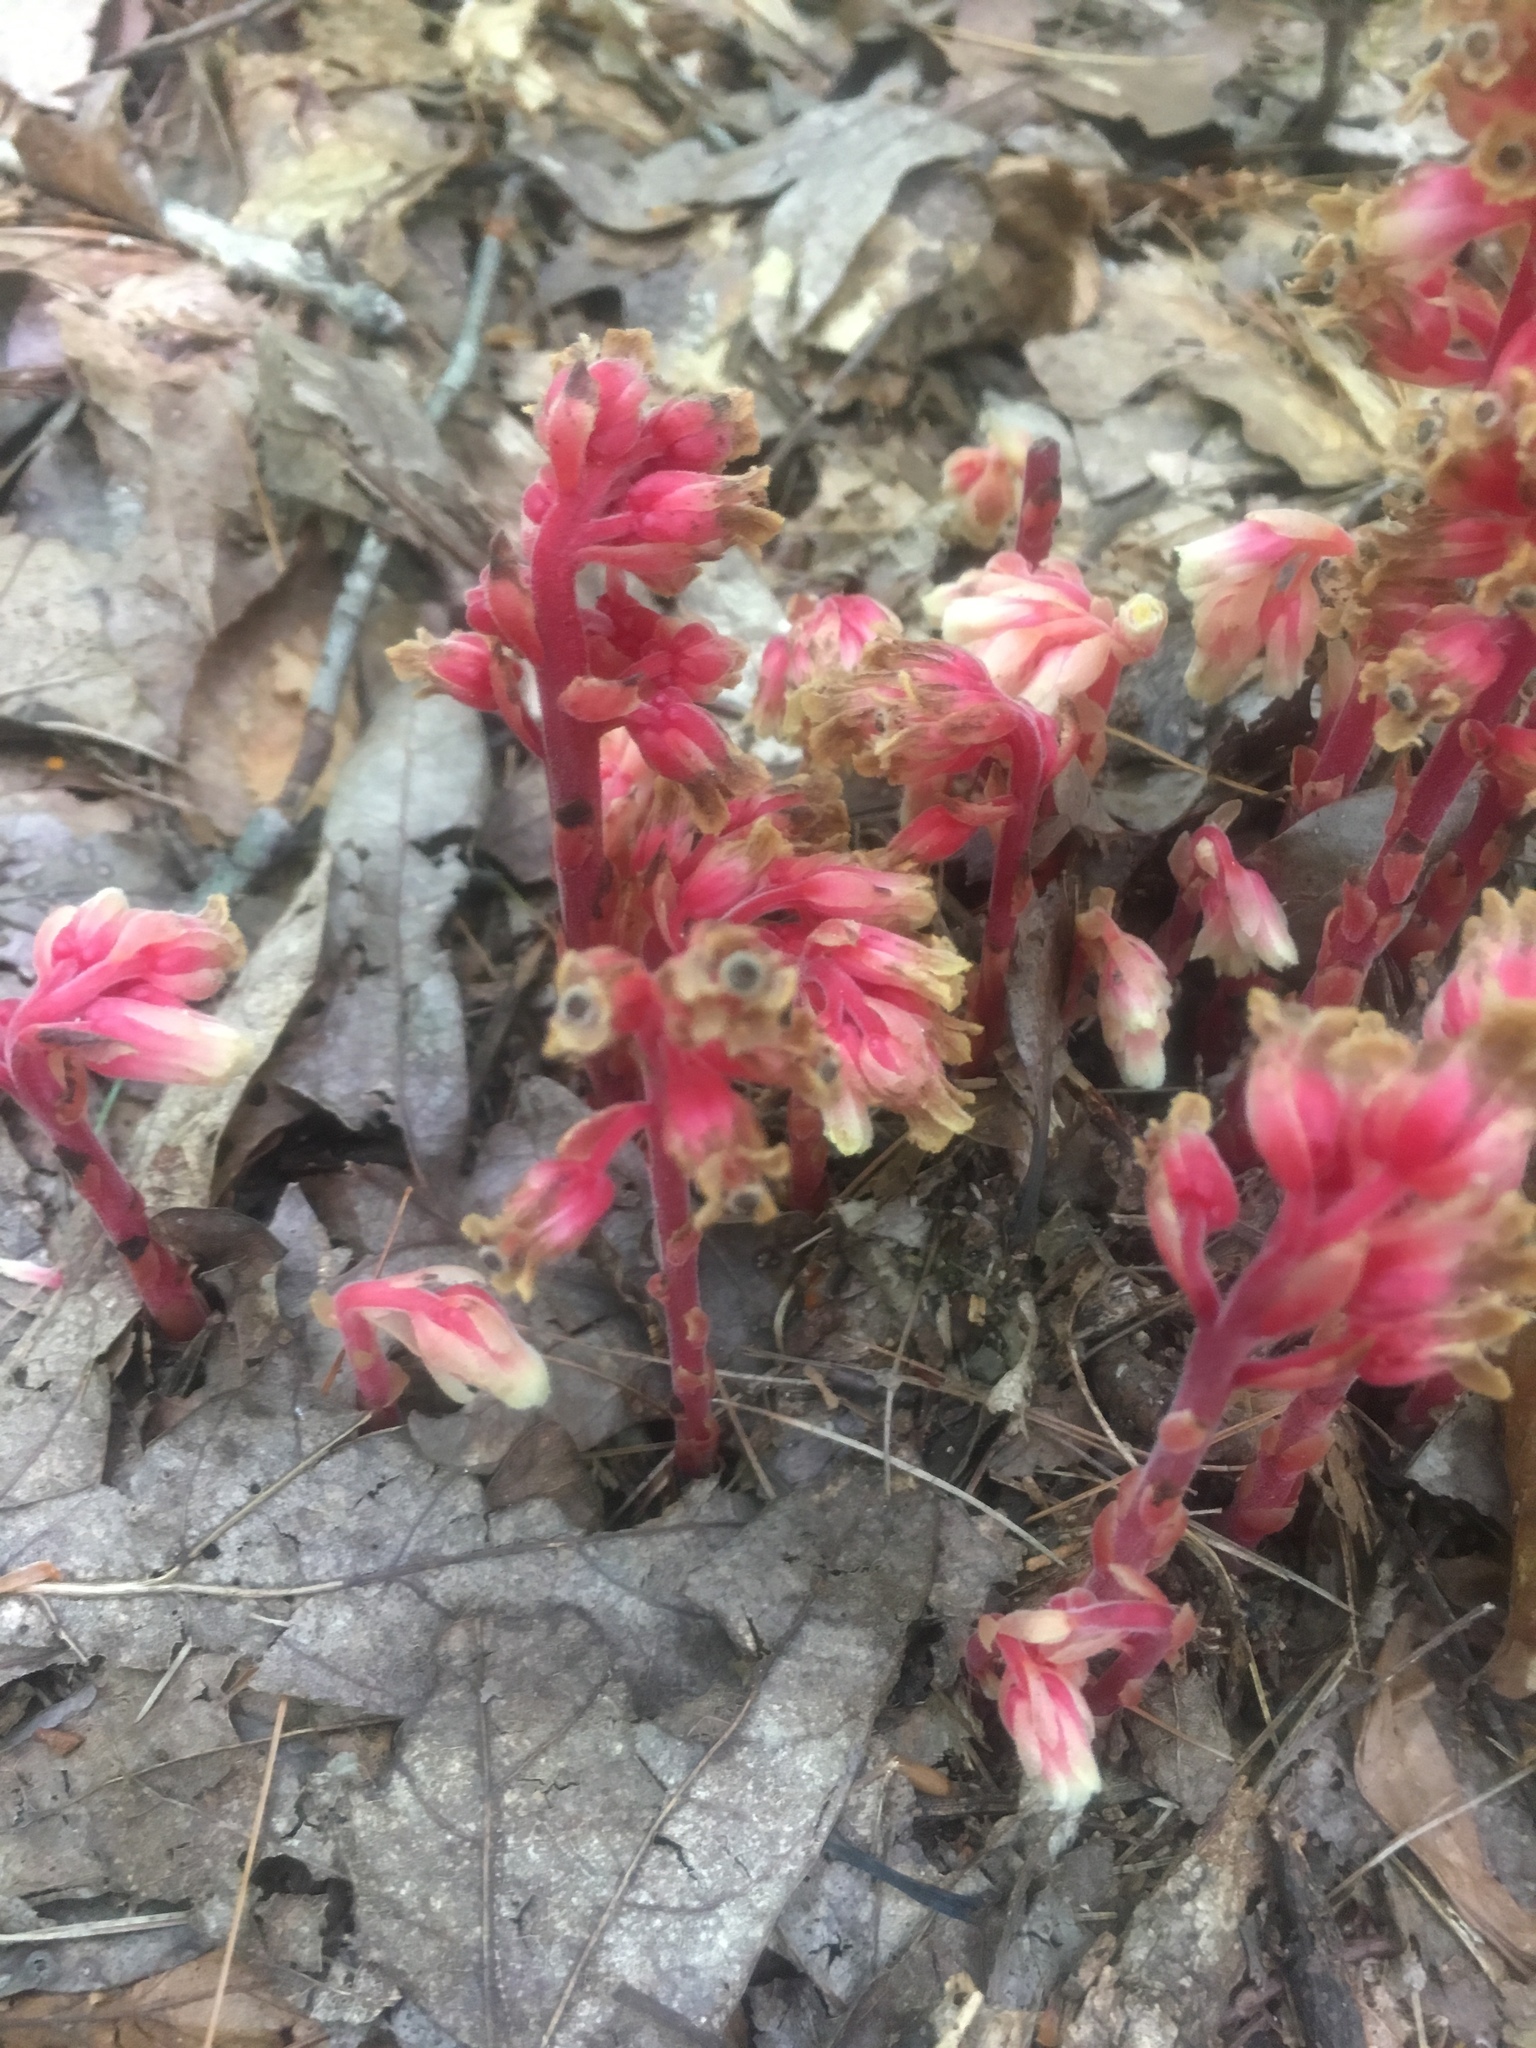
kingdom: Plantae
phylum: Tracheophyta
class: Magnoliopsida
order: Ericales
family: Ericaceae
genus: Hypopitys
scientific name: Hypopitys monotropa
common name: Yellow bird's-nest
